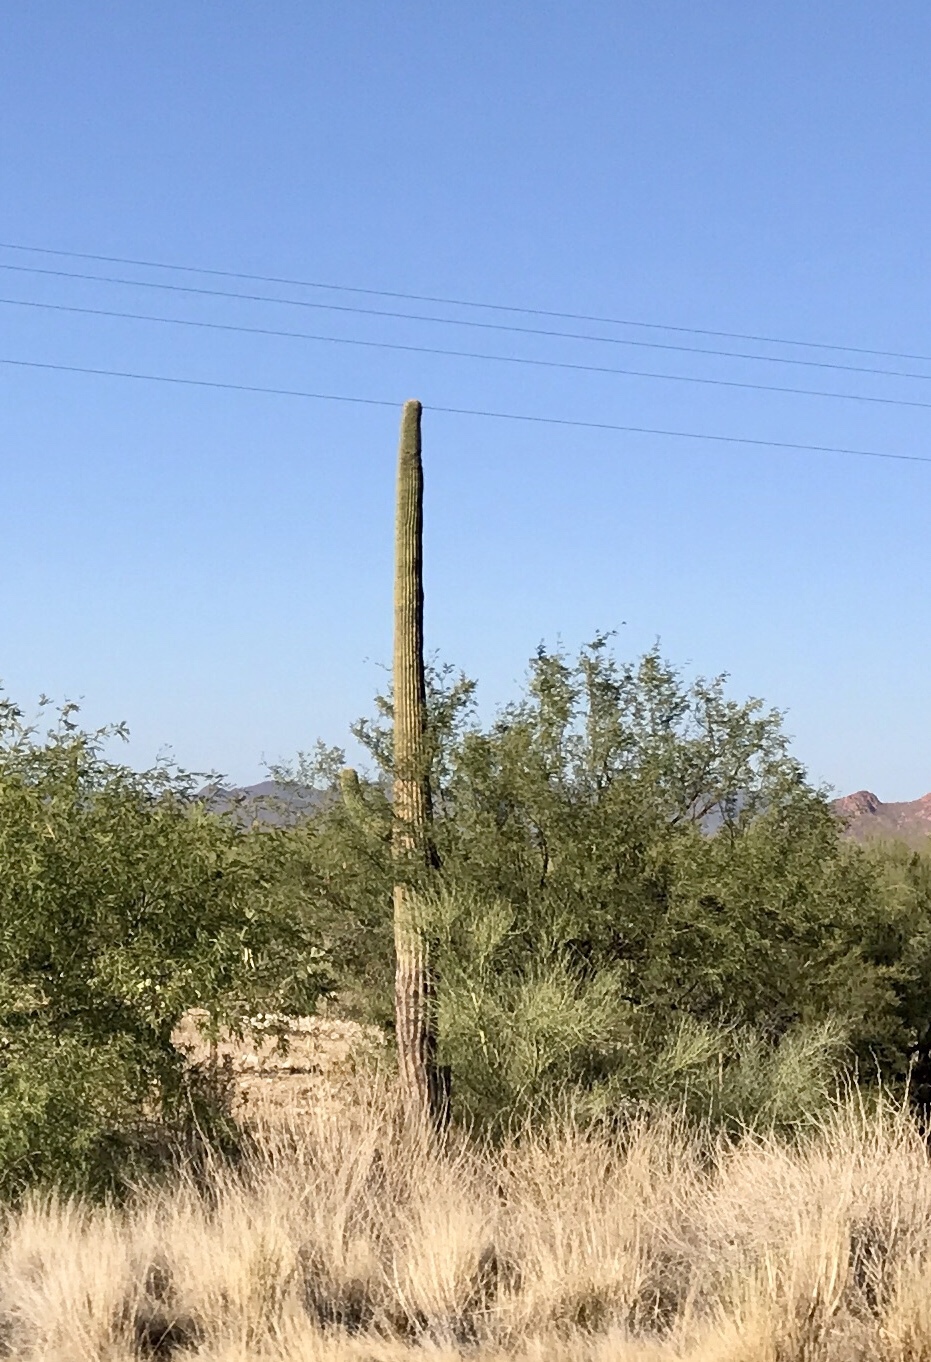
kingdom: Plantae
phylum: Tracheophyta
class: Magnoliopsida
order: Caryophyllales
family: Cactaceae
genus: Carnegiea
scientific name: Carnegiea gigantea
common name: Saguaro
